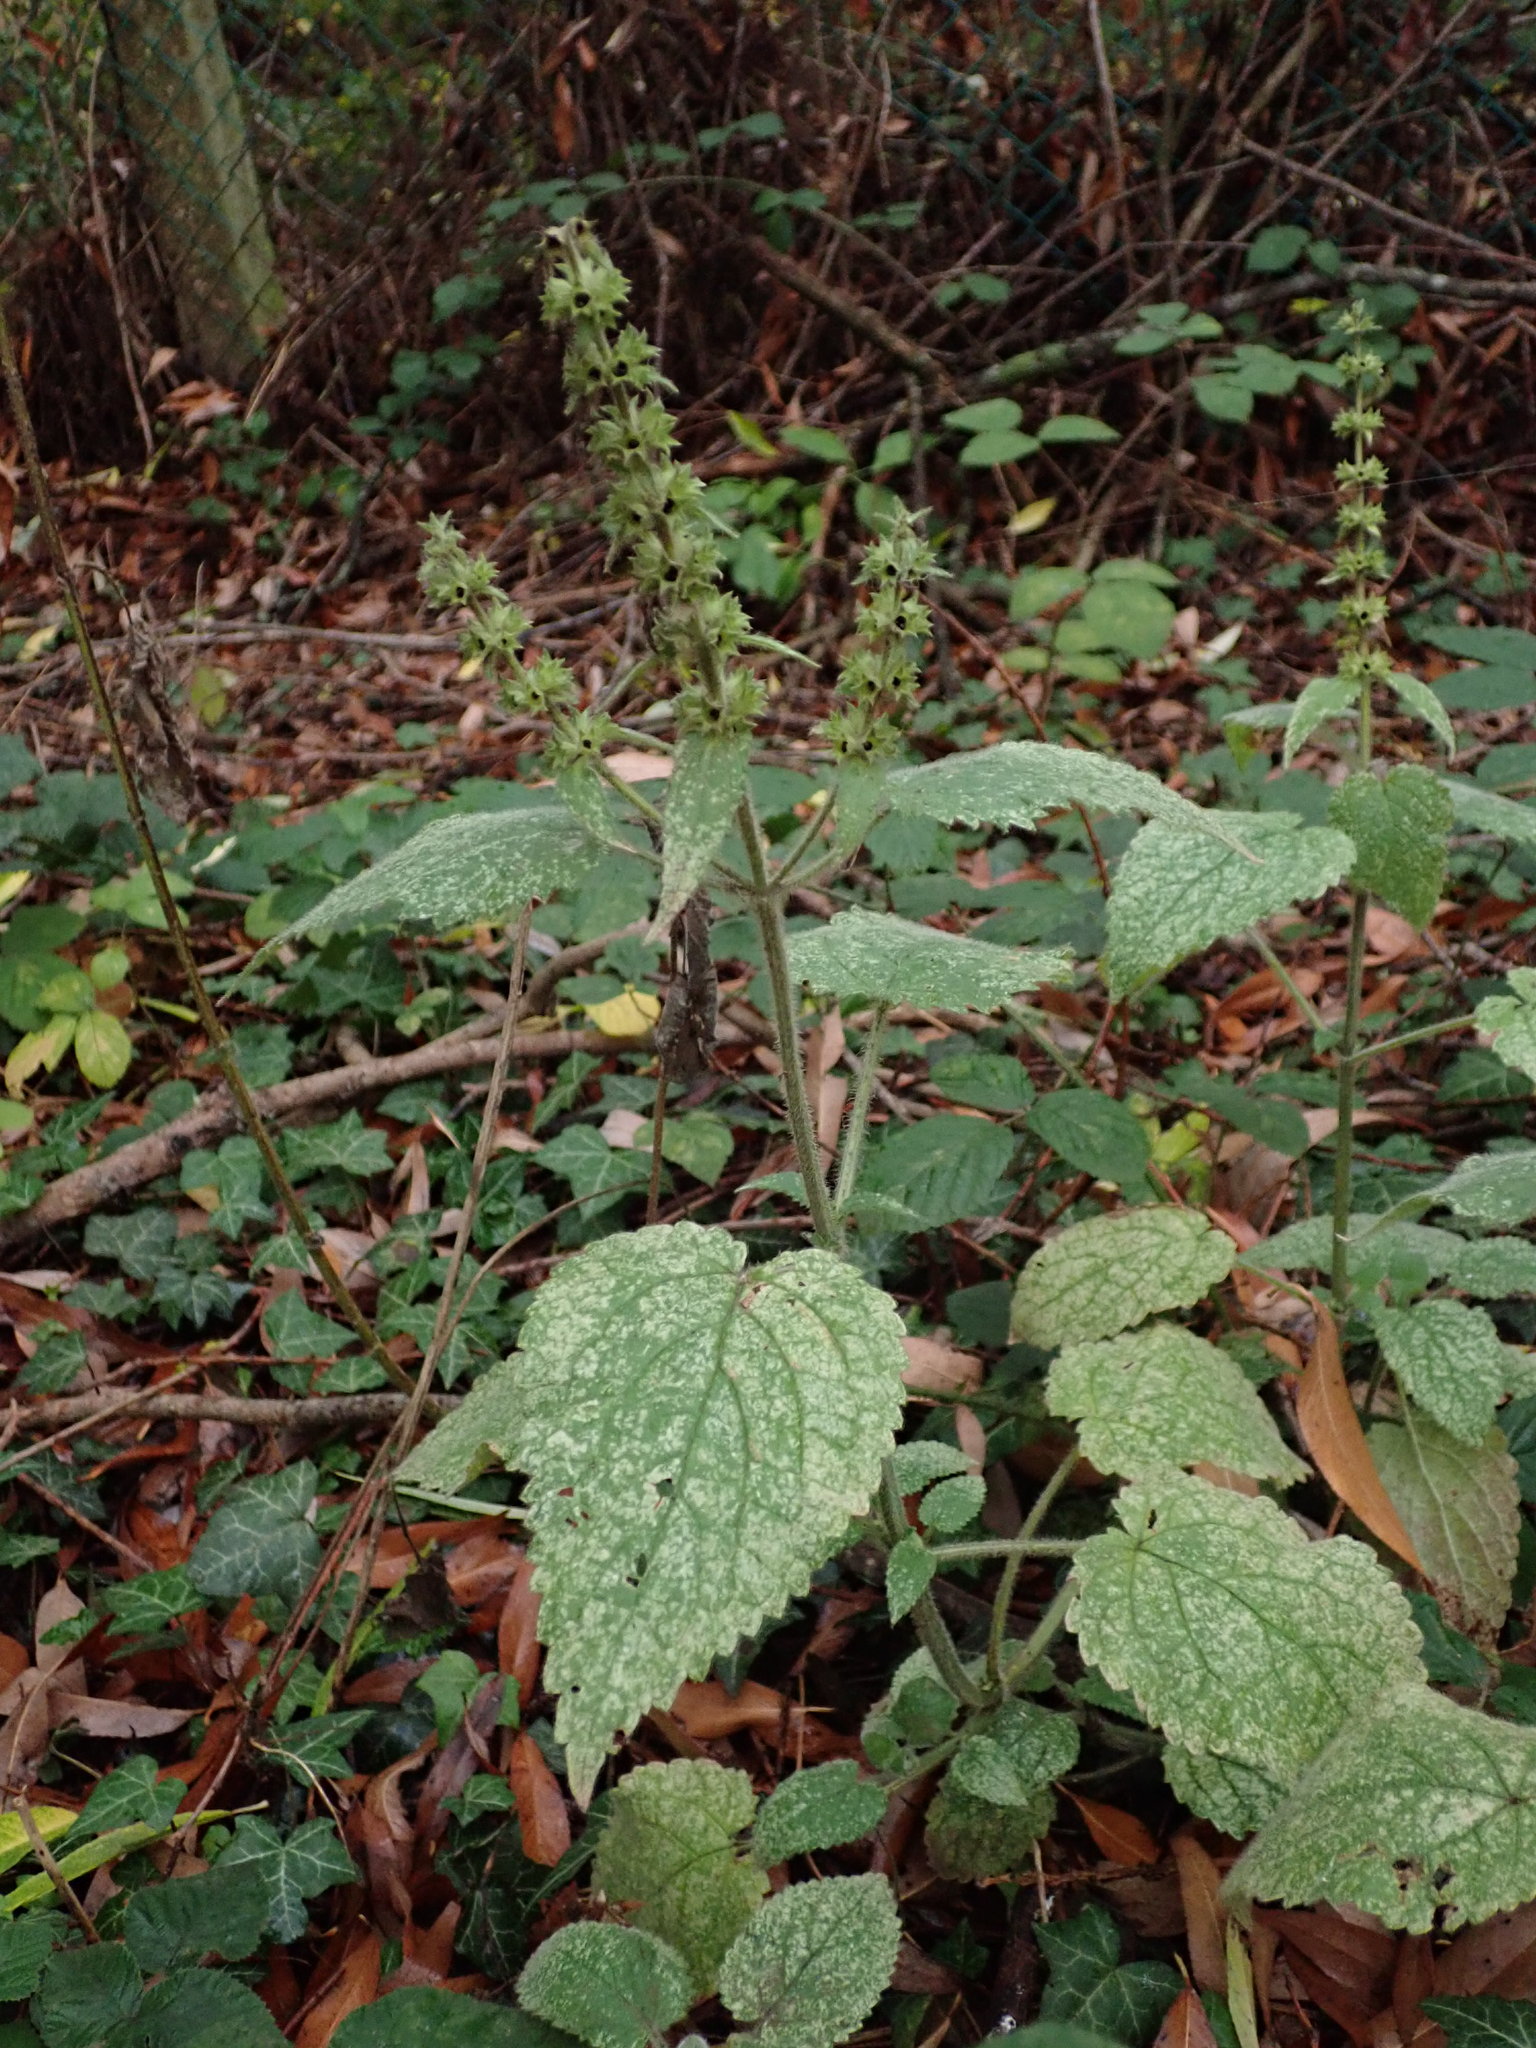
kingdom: Plantae
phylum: Tracheophyta
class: Magnoliopsida
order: Lamiales
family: Lamiaceae
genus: Stachys
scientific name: Stachys sylvatica
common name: Hedge woundwort
